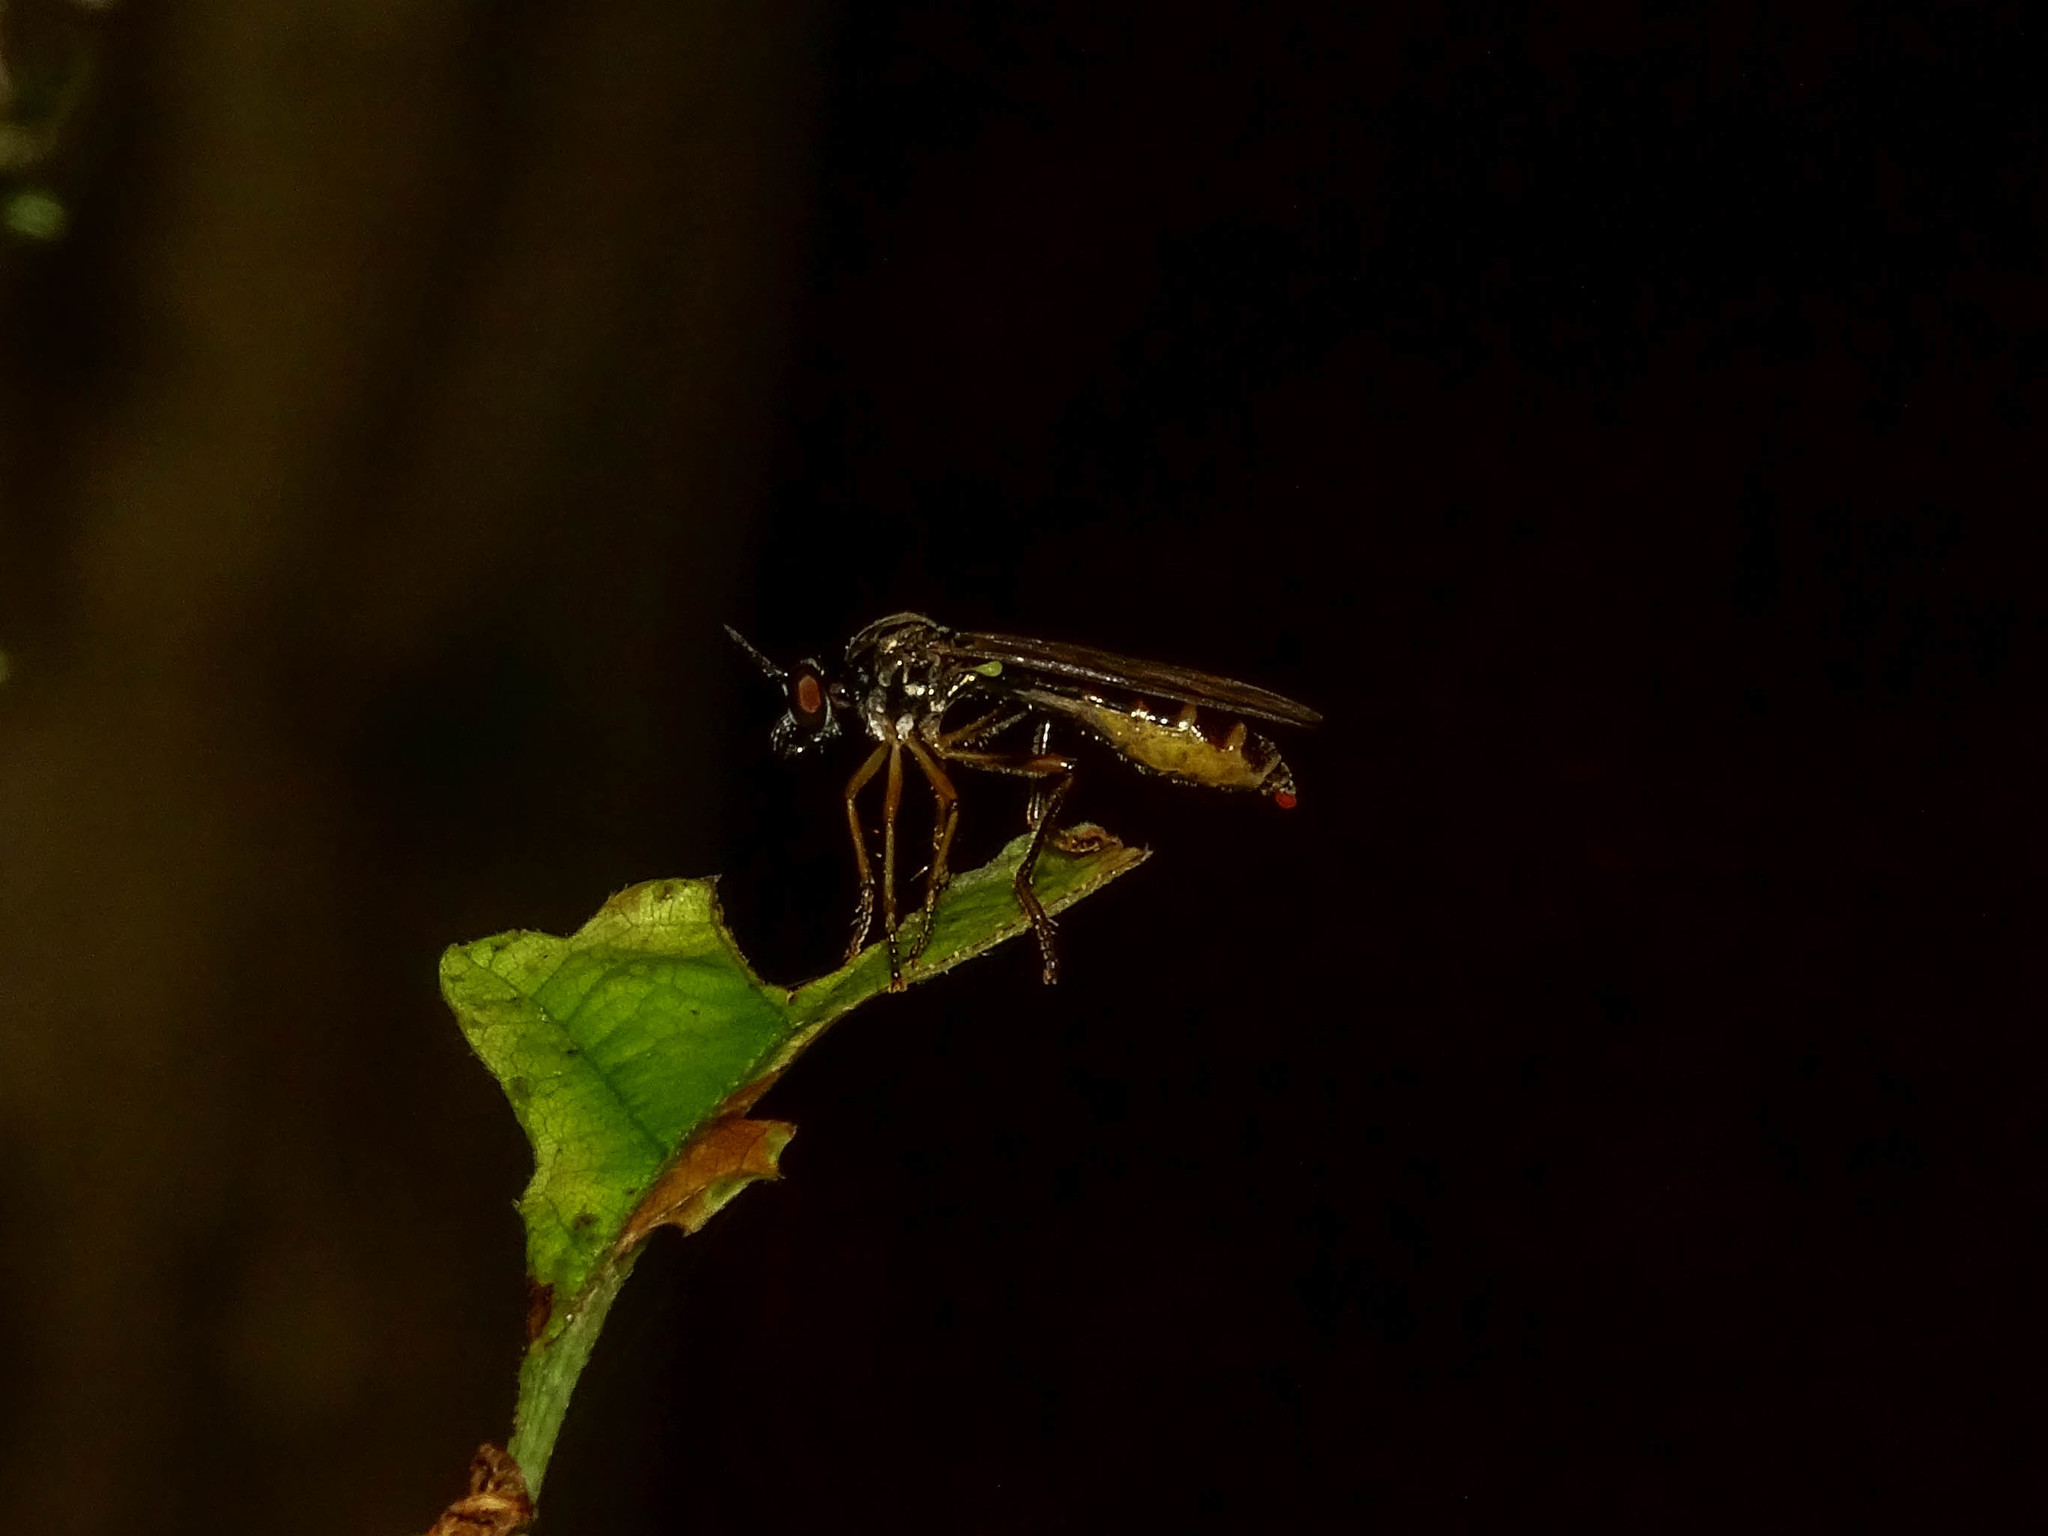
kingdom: Animalia
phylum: Arthropoda
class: Insecta
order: Diptera
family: Asilidae
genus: Dioctria
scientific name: Dioctria linearis
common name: Small yellow-legged robberfly
